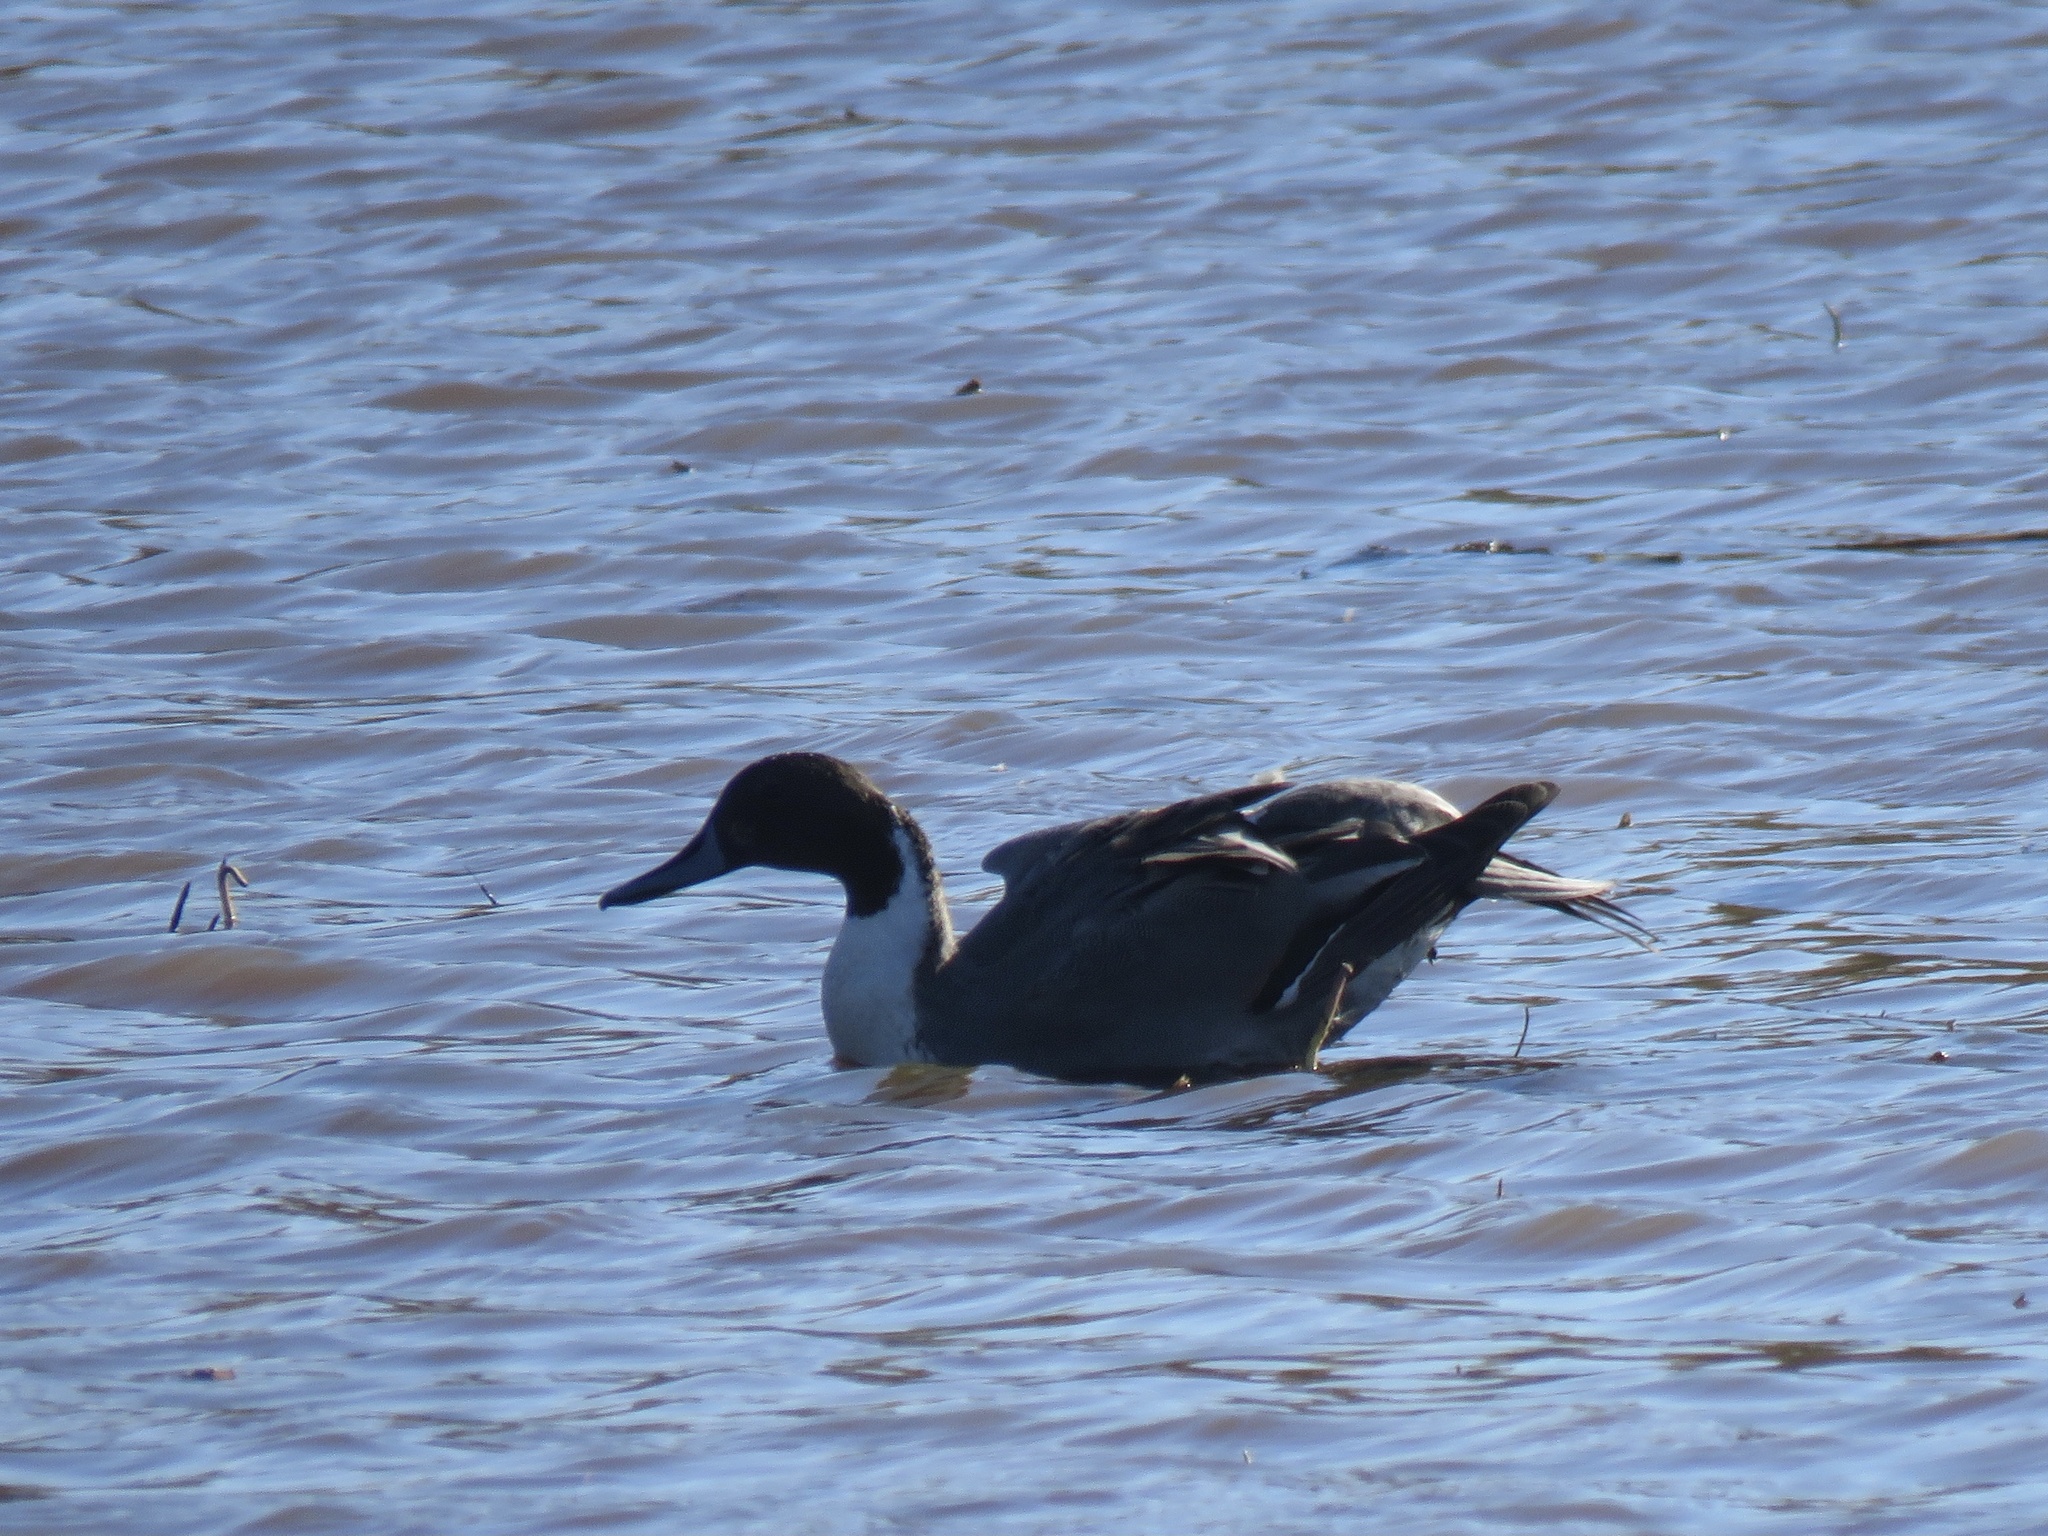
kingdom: Animalia
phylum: Chordata
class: Aves
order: Anseriformes
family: Anatidae
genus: Anas
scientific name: Anas acuta
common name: Northern pintail
